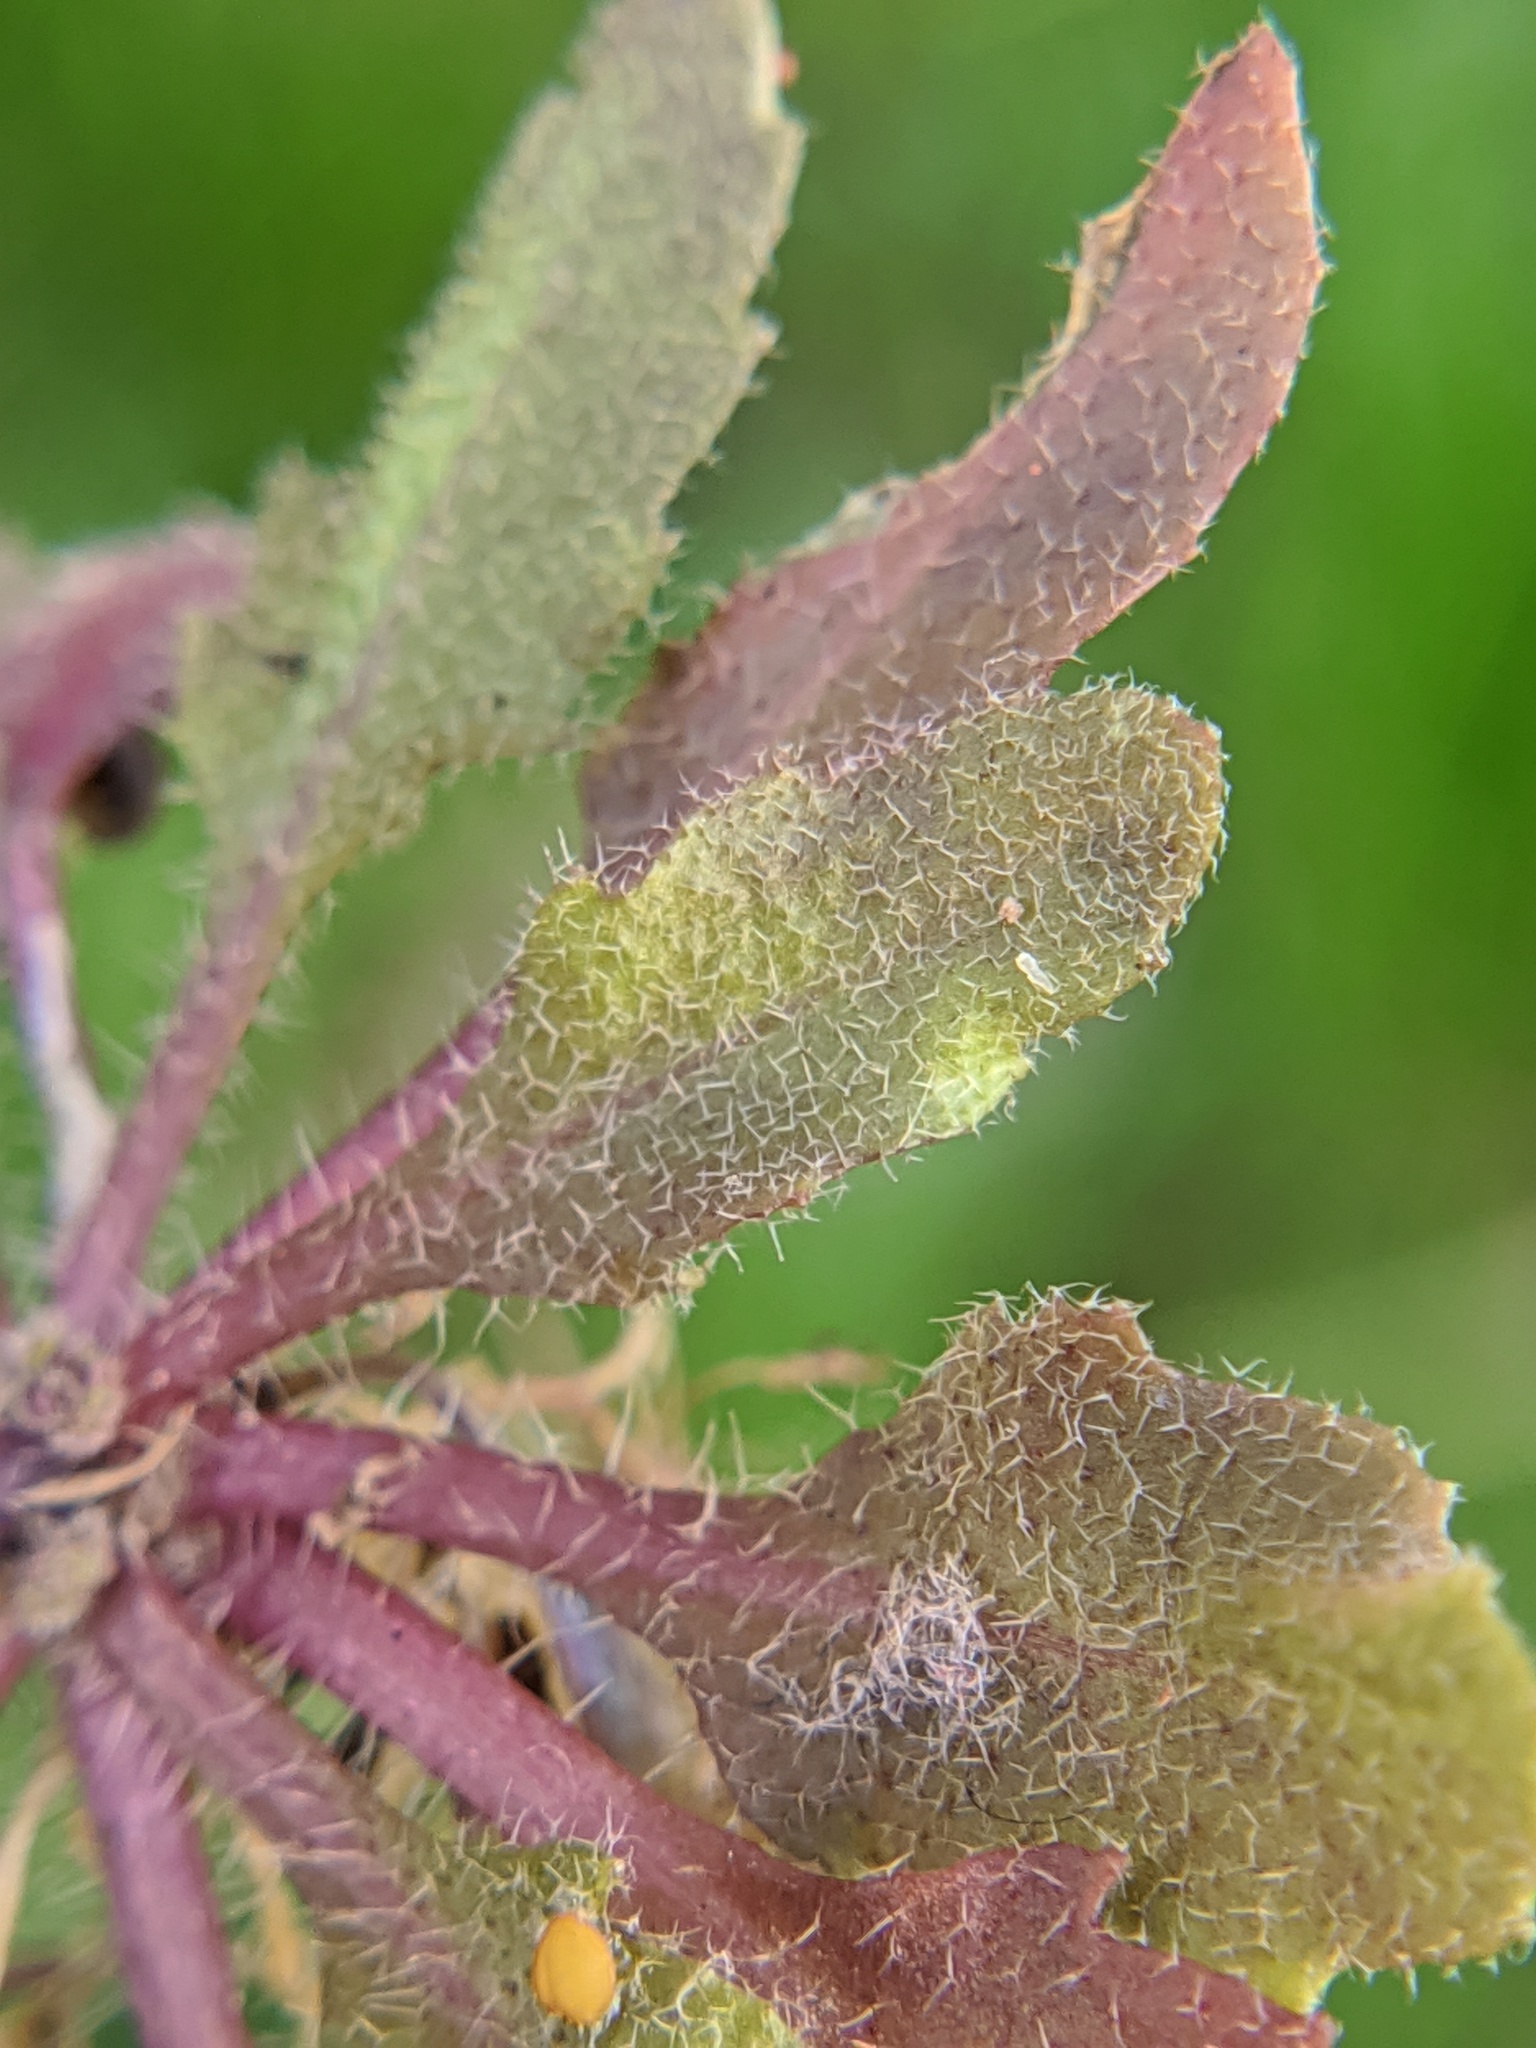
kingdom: Plantae
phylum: Tracheophyta
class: Magnoliopsida
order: Brassicales
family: Brassicaceae
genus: Arabidopsis
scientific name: Arabidopsis thaliana
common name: Thale cress
